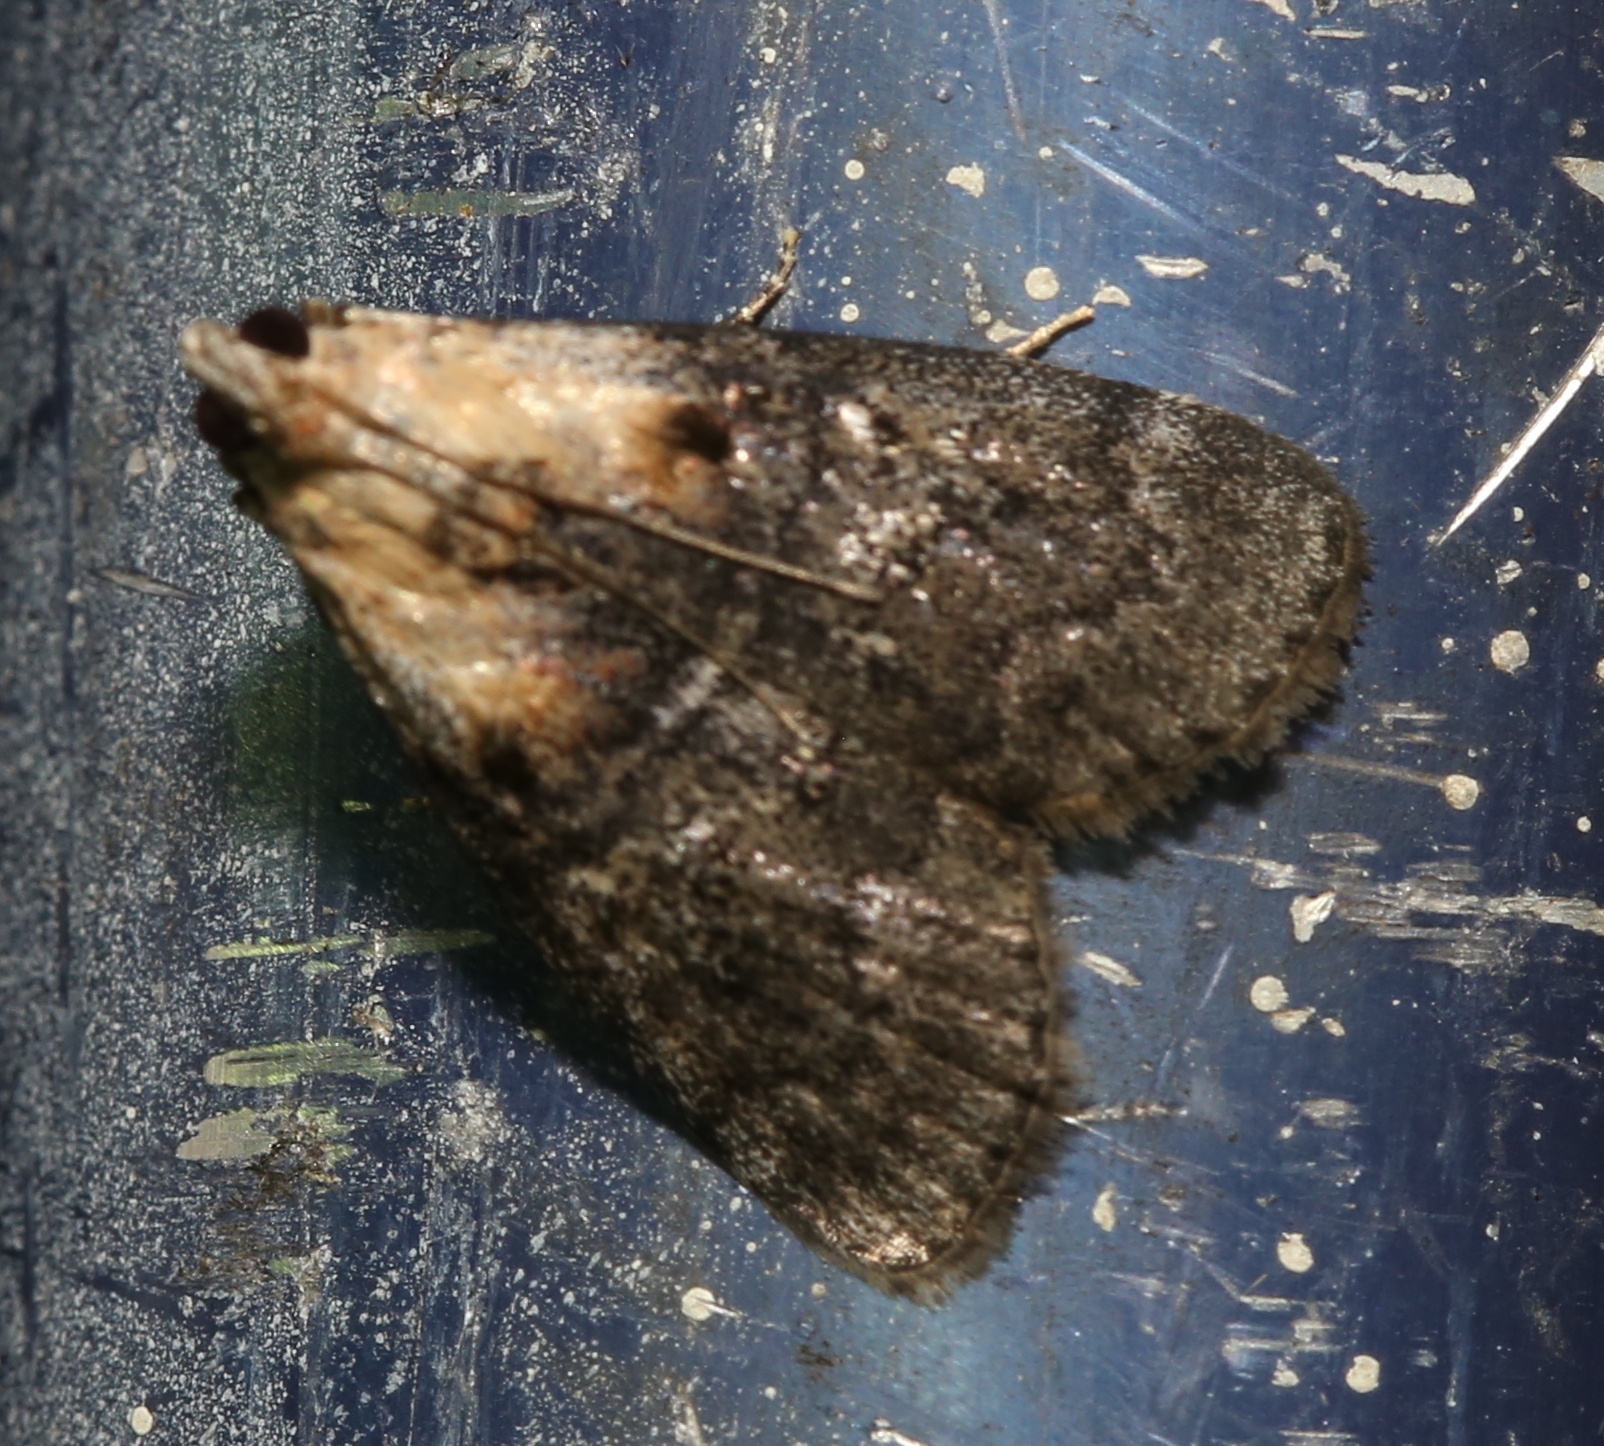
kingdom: Animalia
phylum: Arthropoda
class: Insecta
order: Lepidoptera
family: Pyralidae
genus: Pococera
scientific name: Pococera expandens
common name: Striped oak webworm moth
